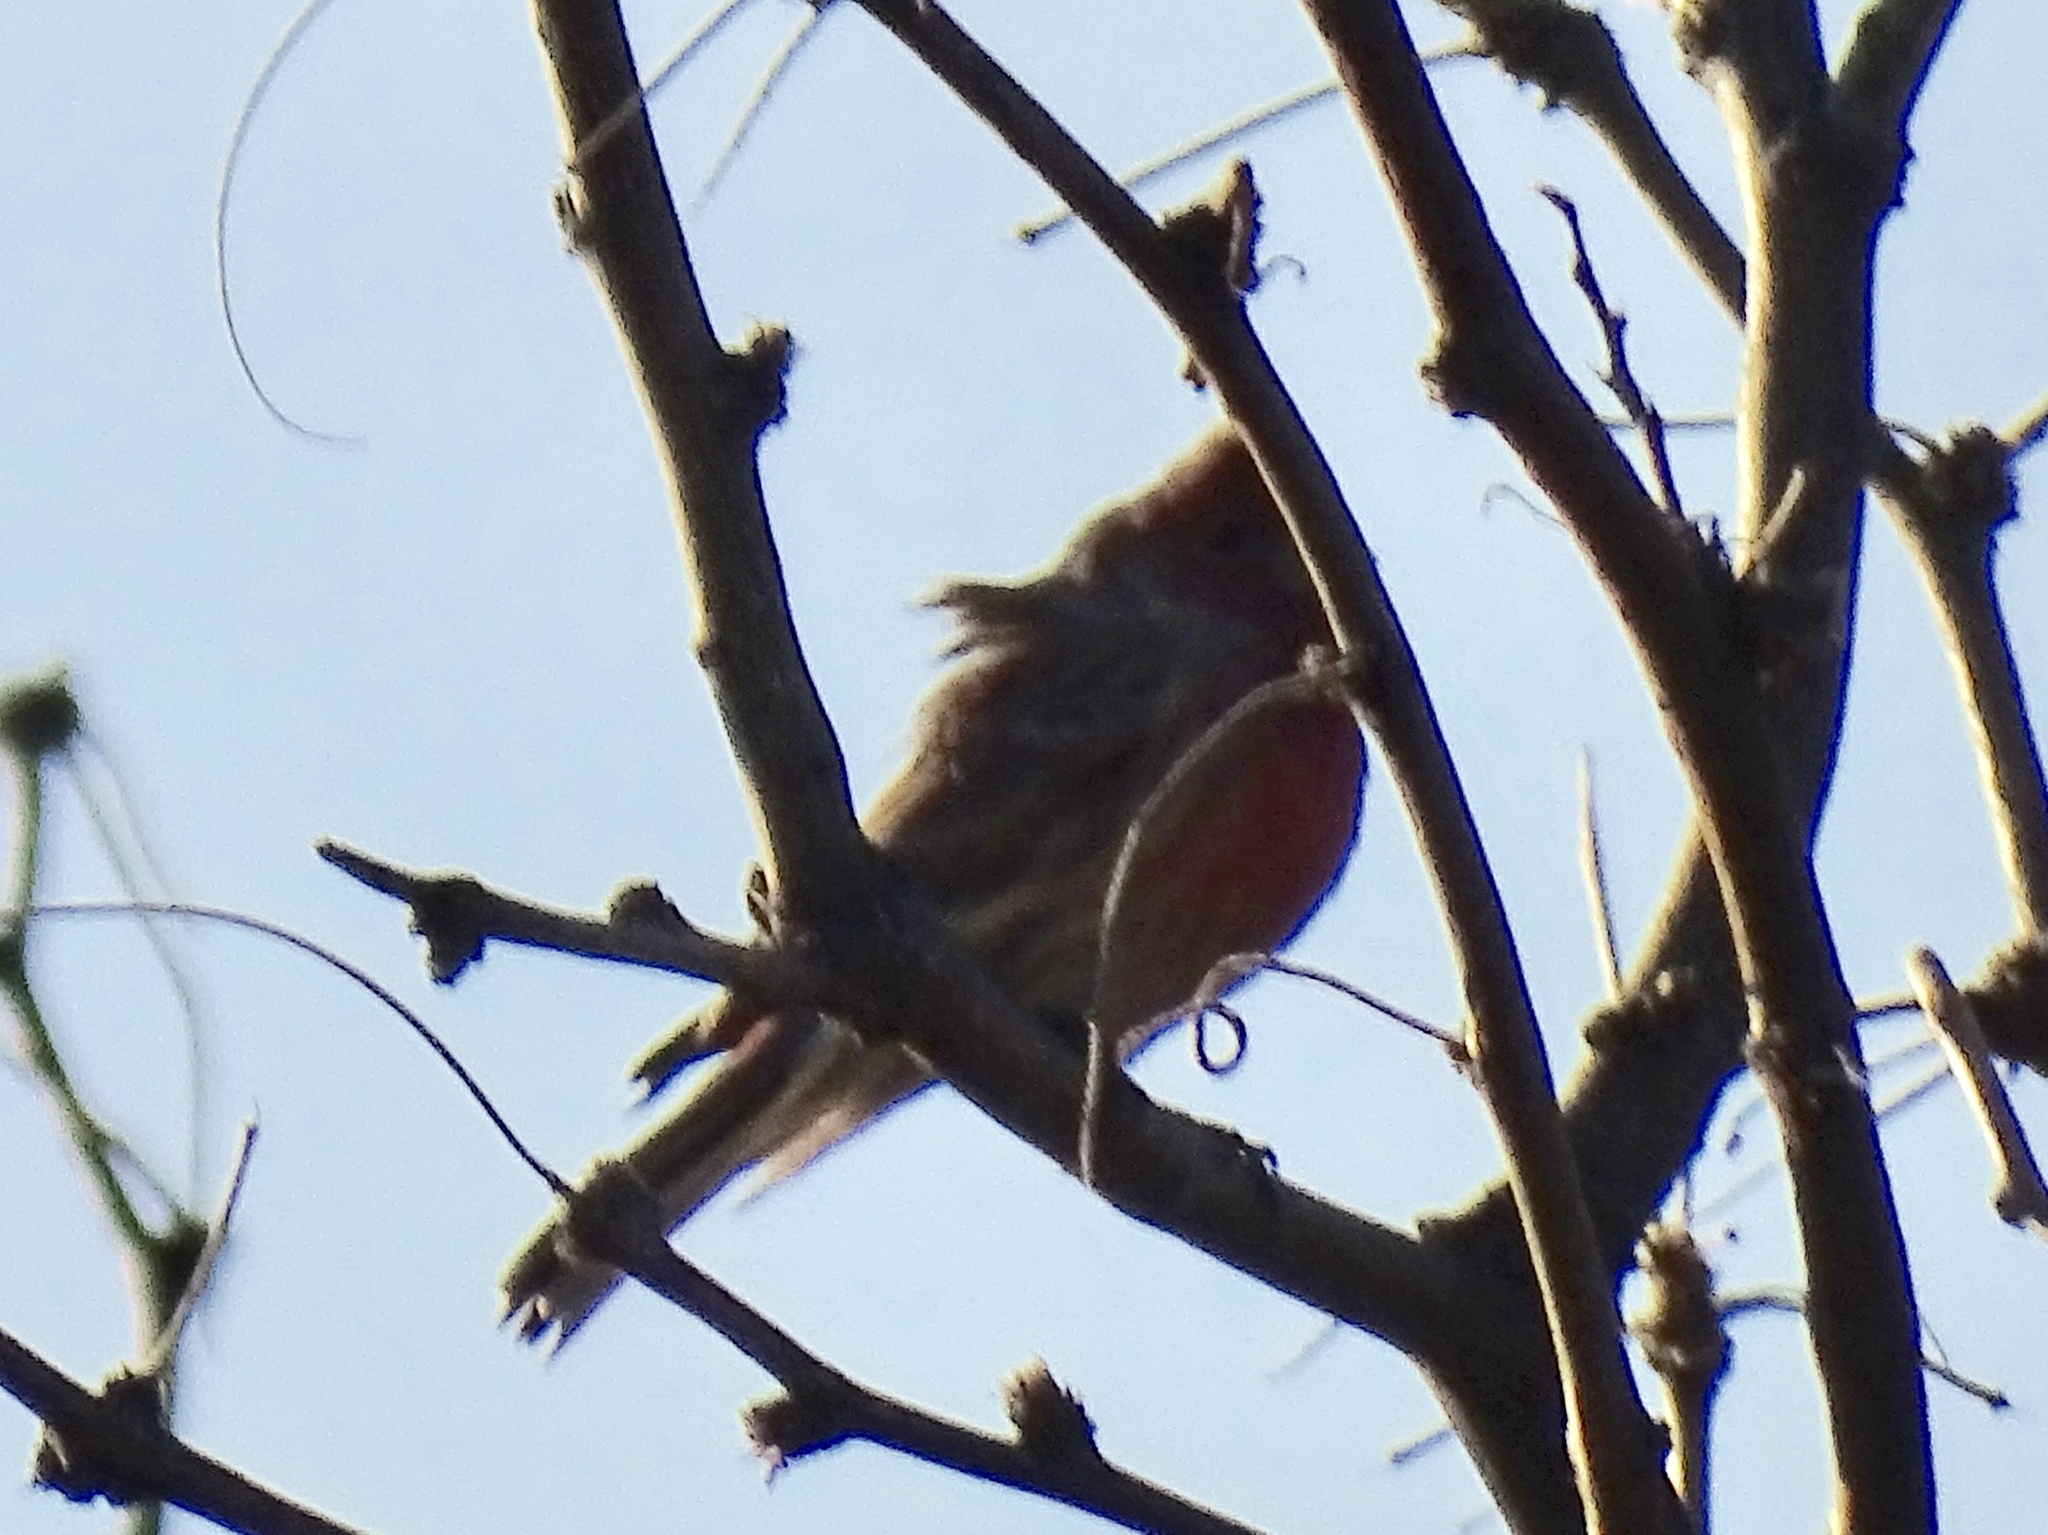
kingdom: Animalia
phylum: Chordata
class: Aves
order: Passeriformes
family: Fringillidae
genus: Haemorhous
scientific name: Haemorhous mexicanus
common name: House finch
